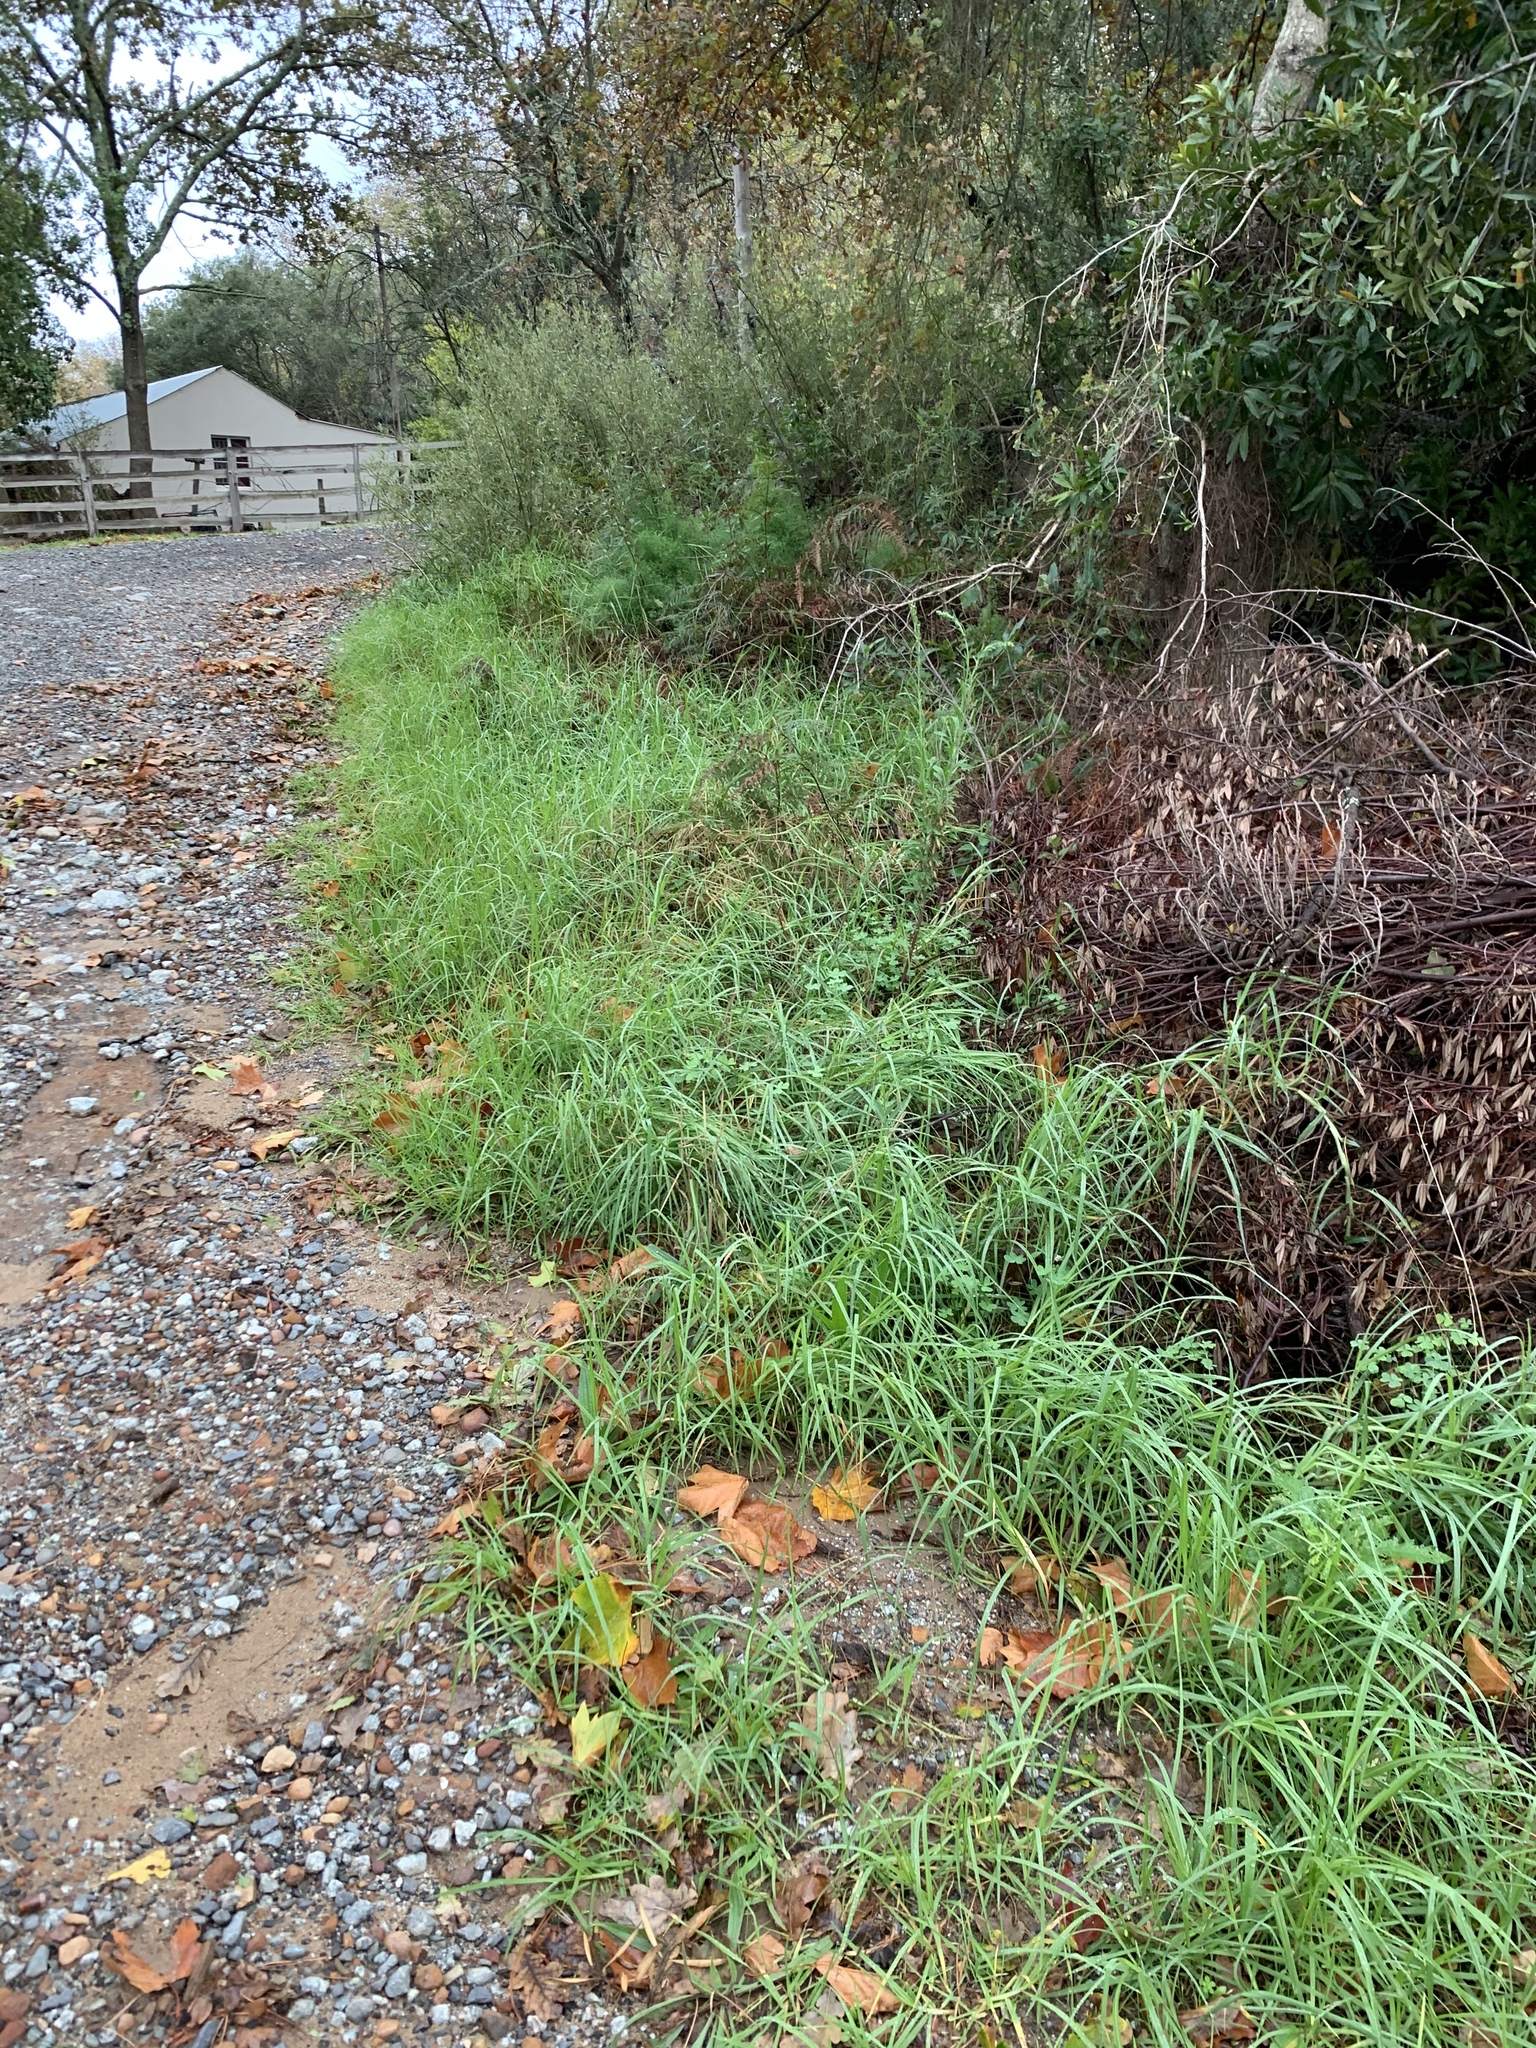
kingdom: Plantae
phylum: Tracheophyta
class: Liliopsida
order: Poales
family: Poaceae
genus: Cenchrus
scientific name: Cenchrus clandestinus
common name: Kikuyugrass
